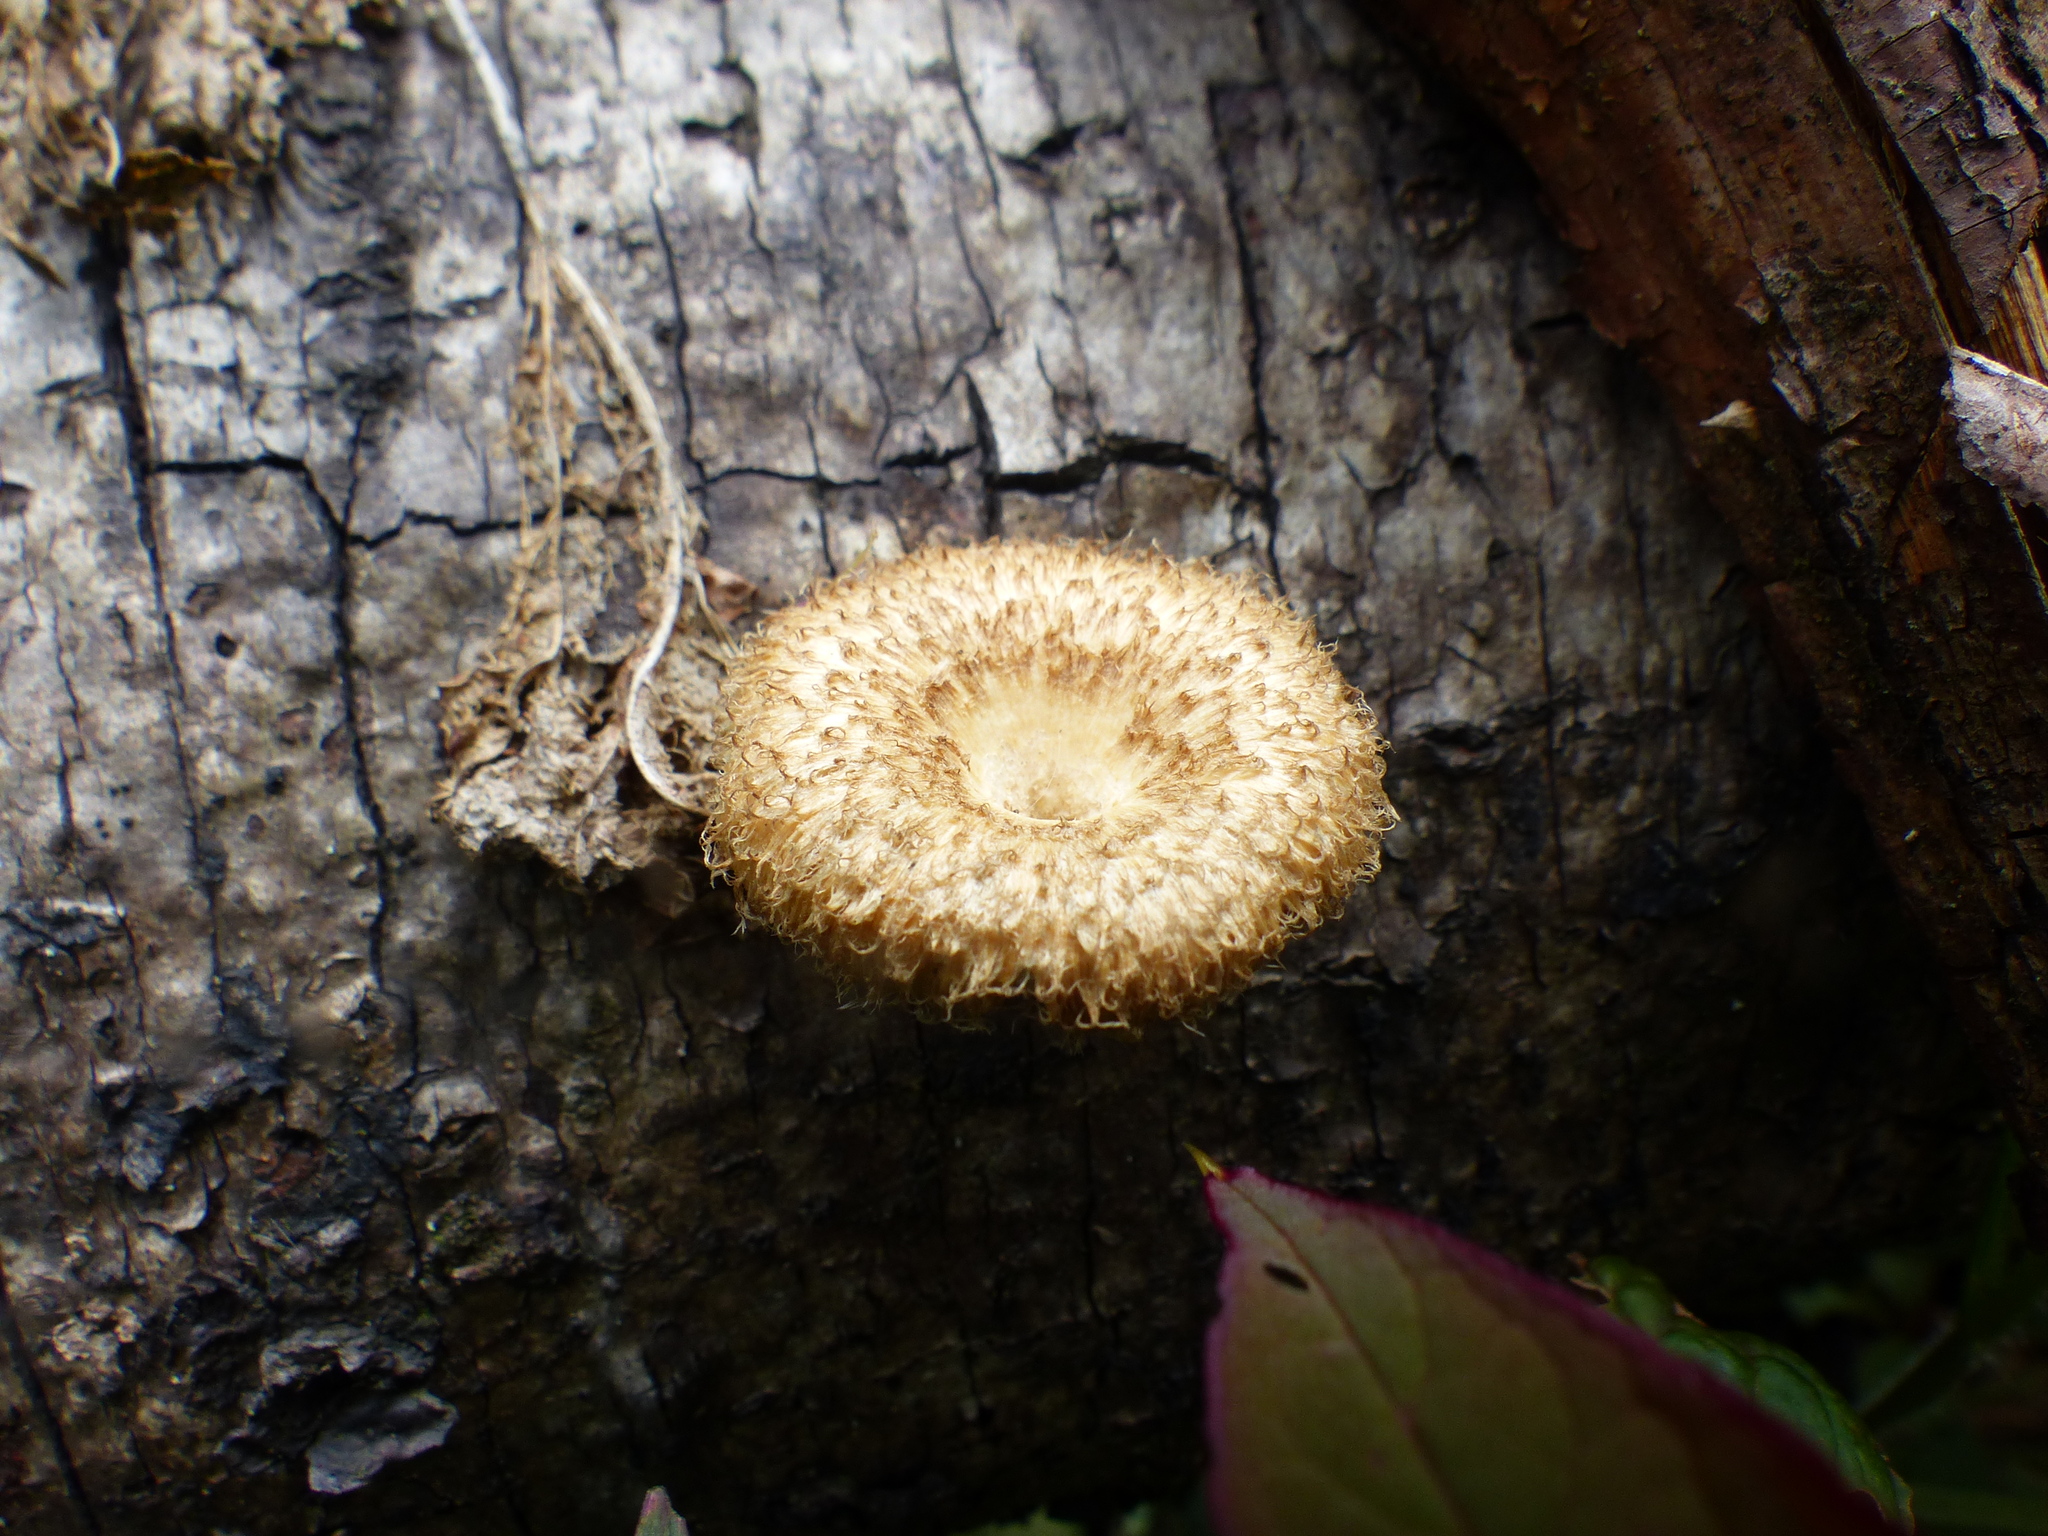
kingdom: Fungi
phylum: Basidiomycota
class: Agaricomycetes
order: Polyporales
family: Polyporaceae
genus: Lentinus
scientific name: Lentinus crinitus
